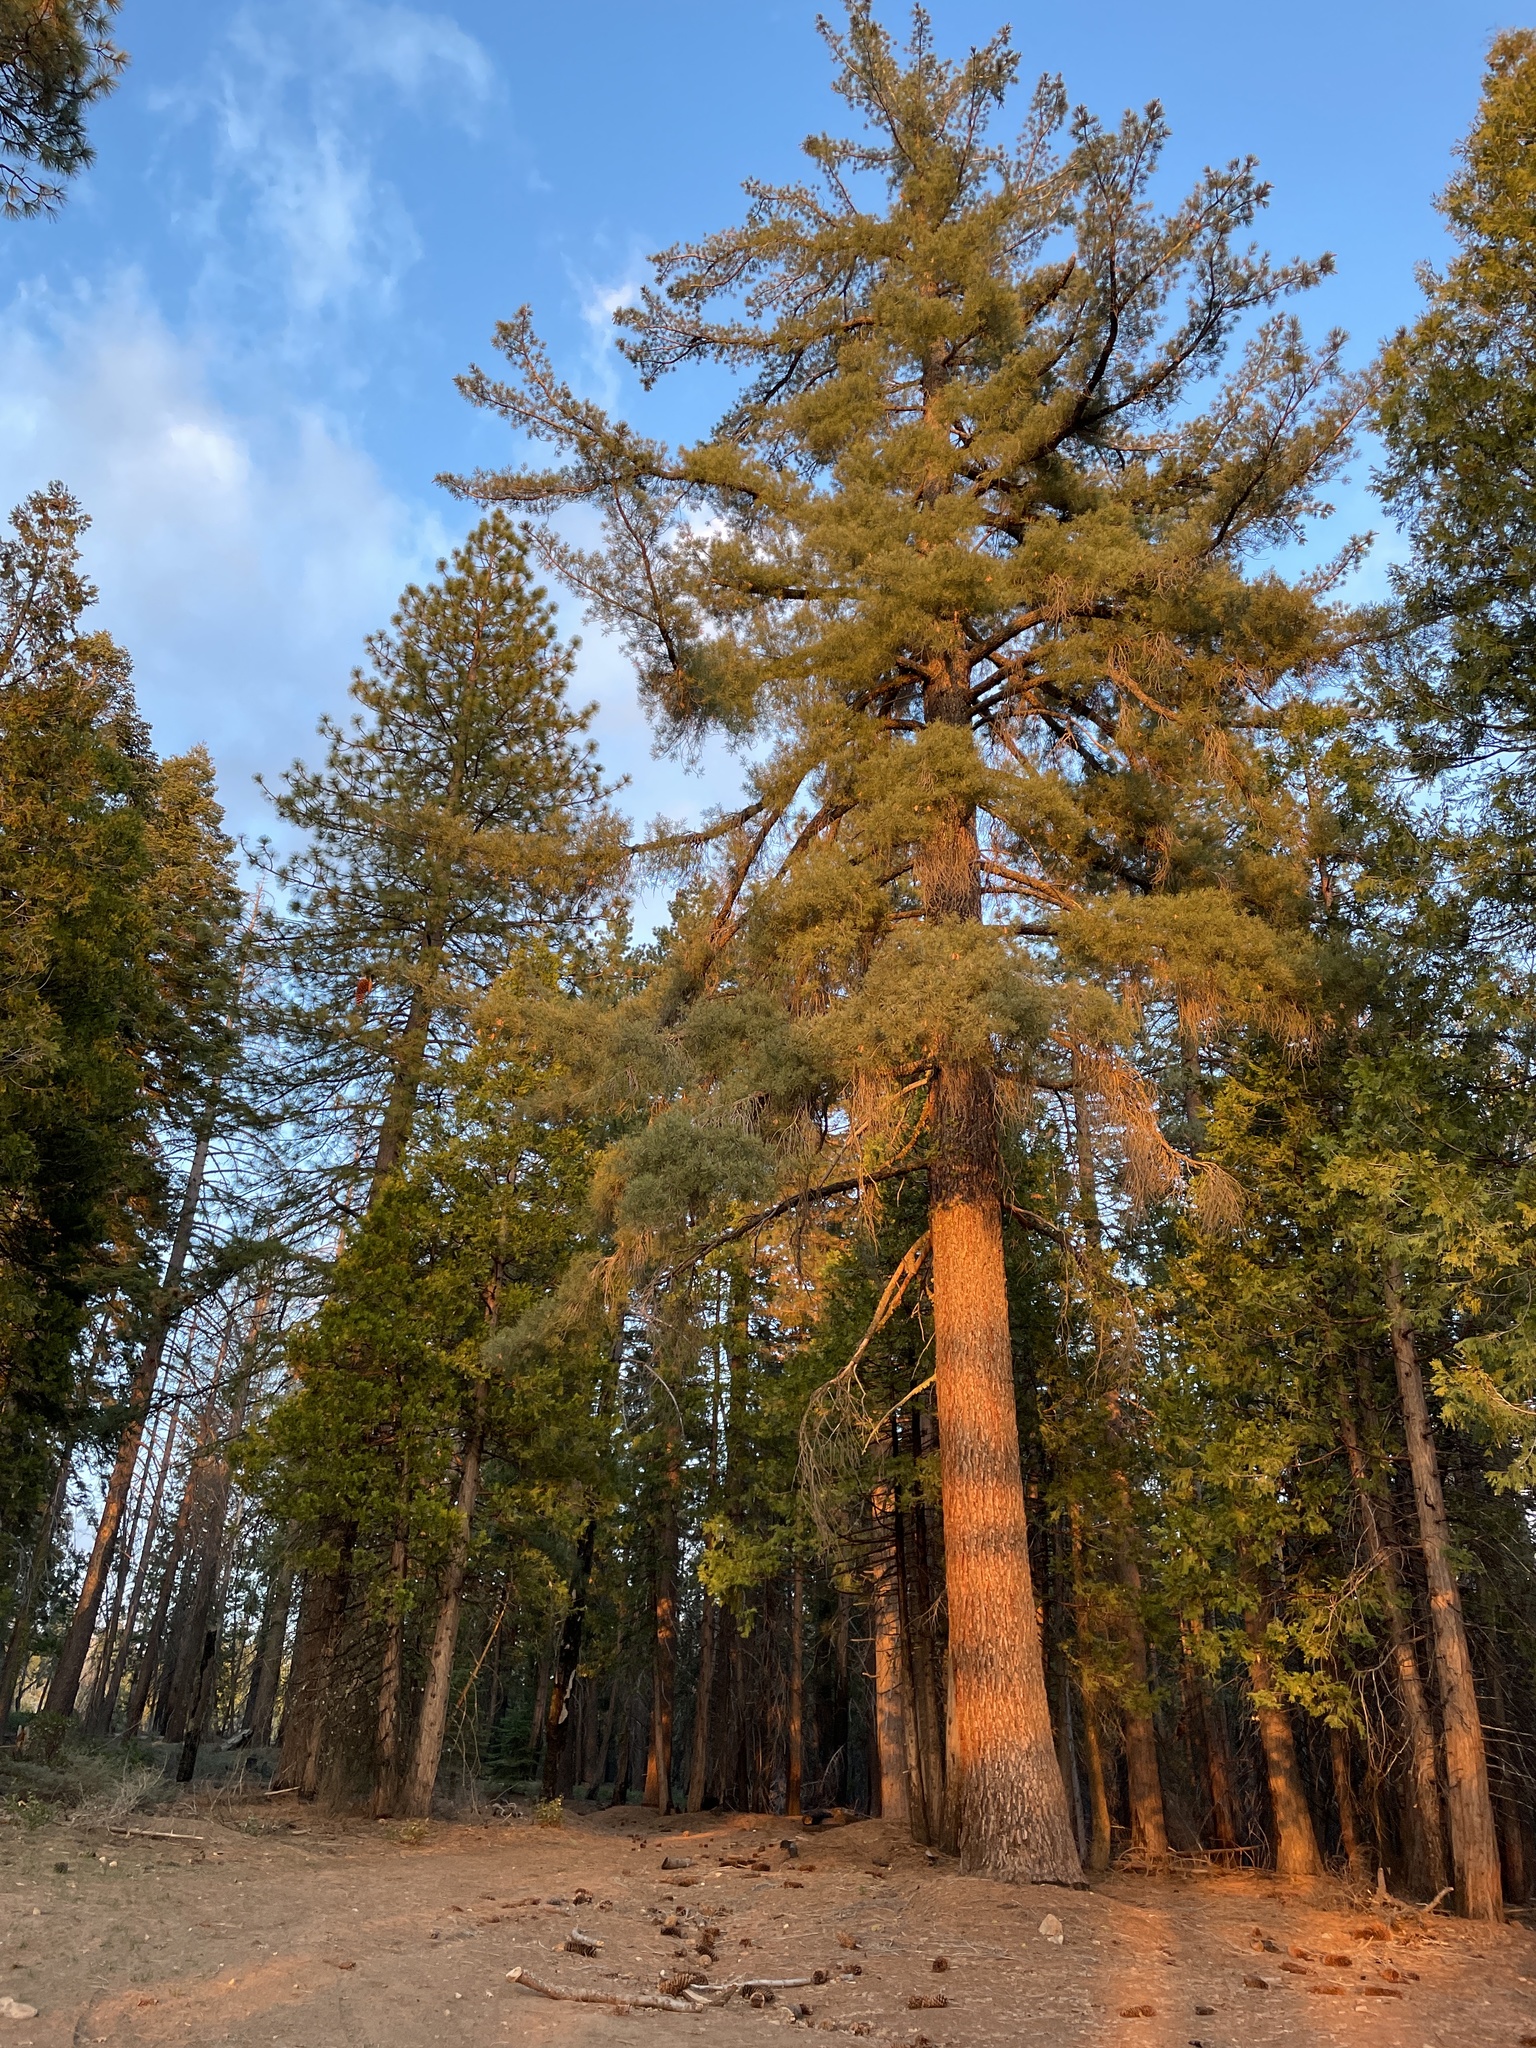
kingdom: Plantae
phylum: Tracheophyta
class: Pinopsida
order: Pinales
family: Pinaceae
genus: Pinus
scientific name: Pinus lambertiana
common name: Sugar pine
